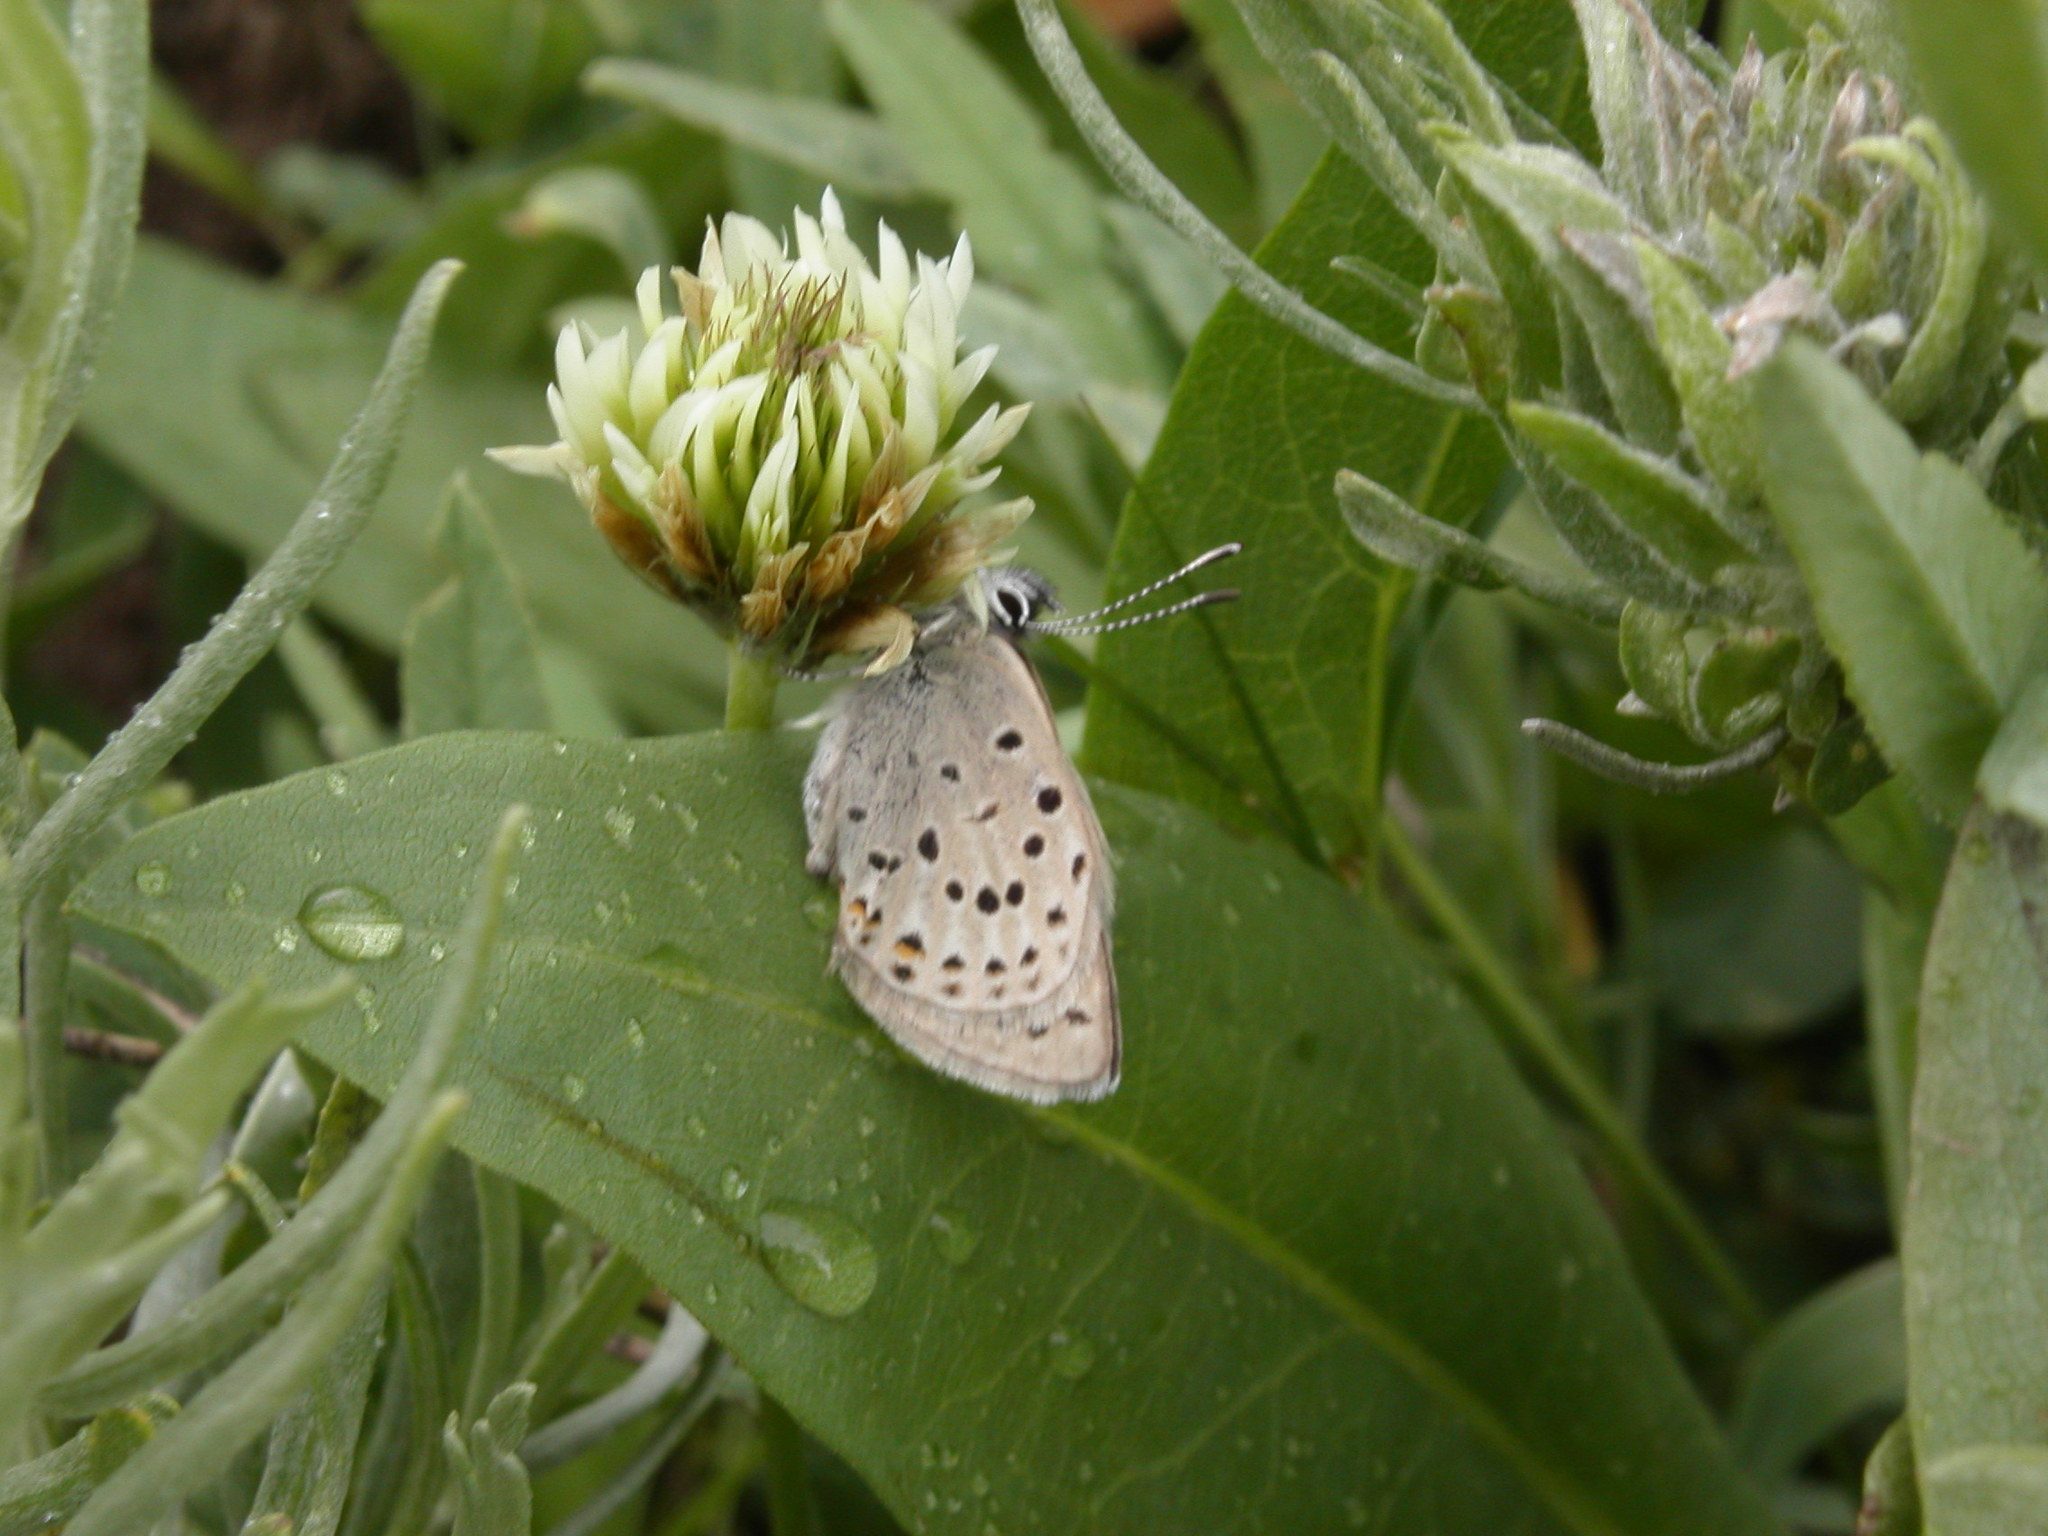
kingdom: Animalia
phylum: Arthropoda
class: Insecta
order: Lepidoptera
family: Lycaenidae
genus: Icaricia
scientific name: Icaricia saepiolus
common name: Greenish blue
